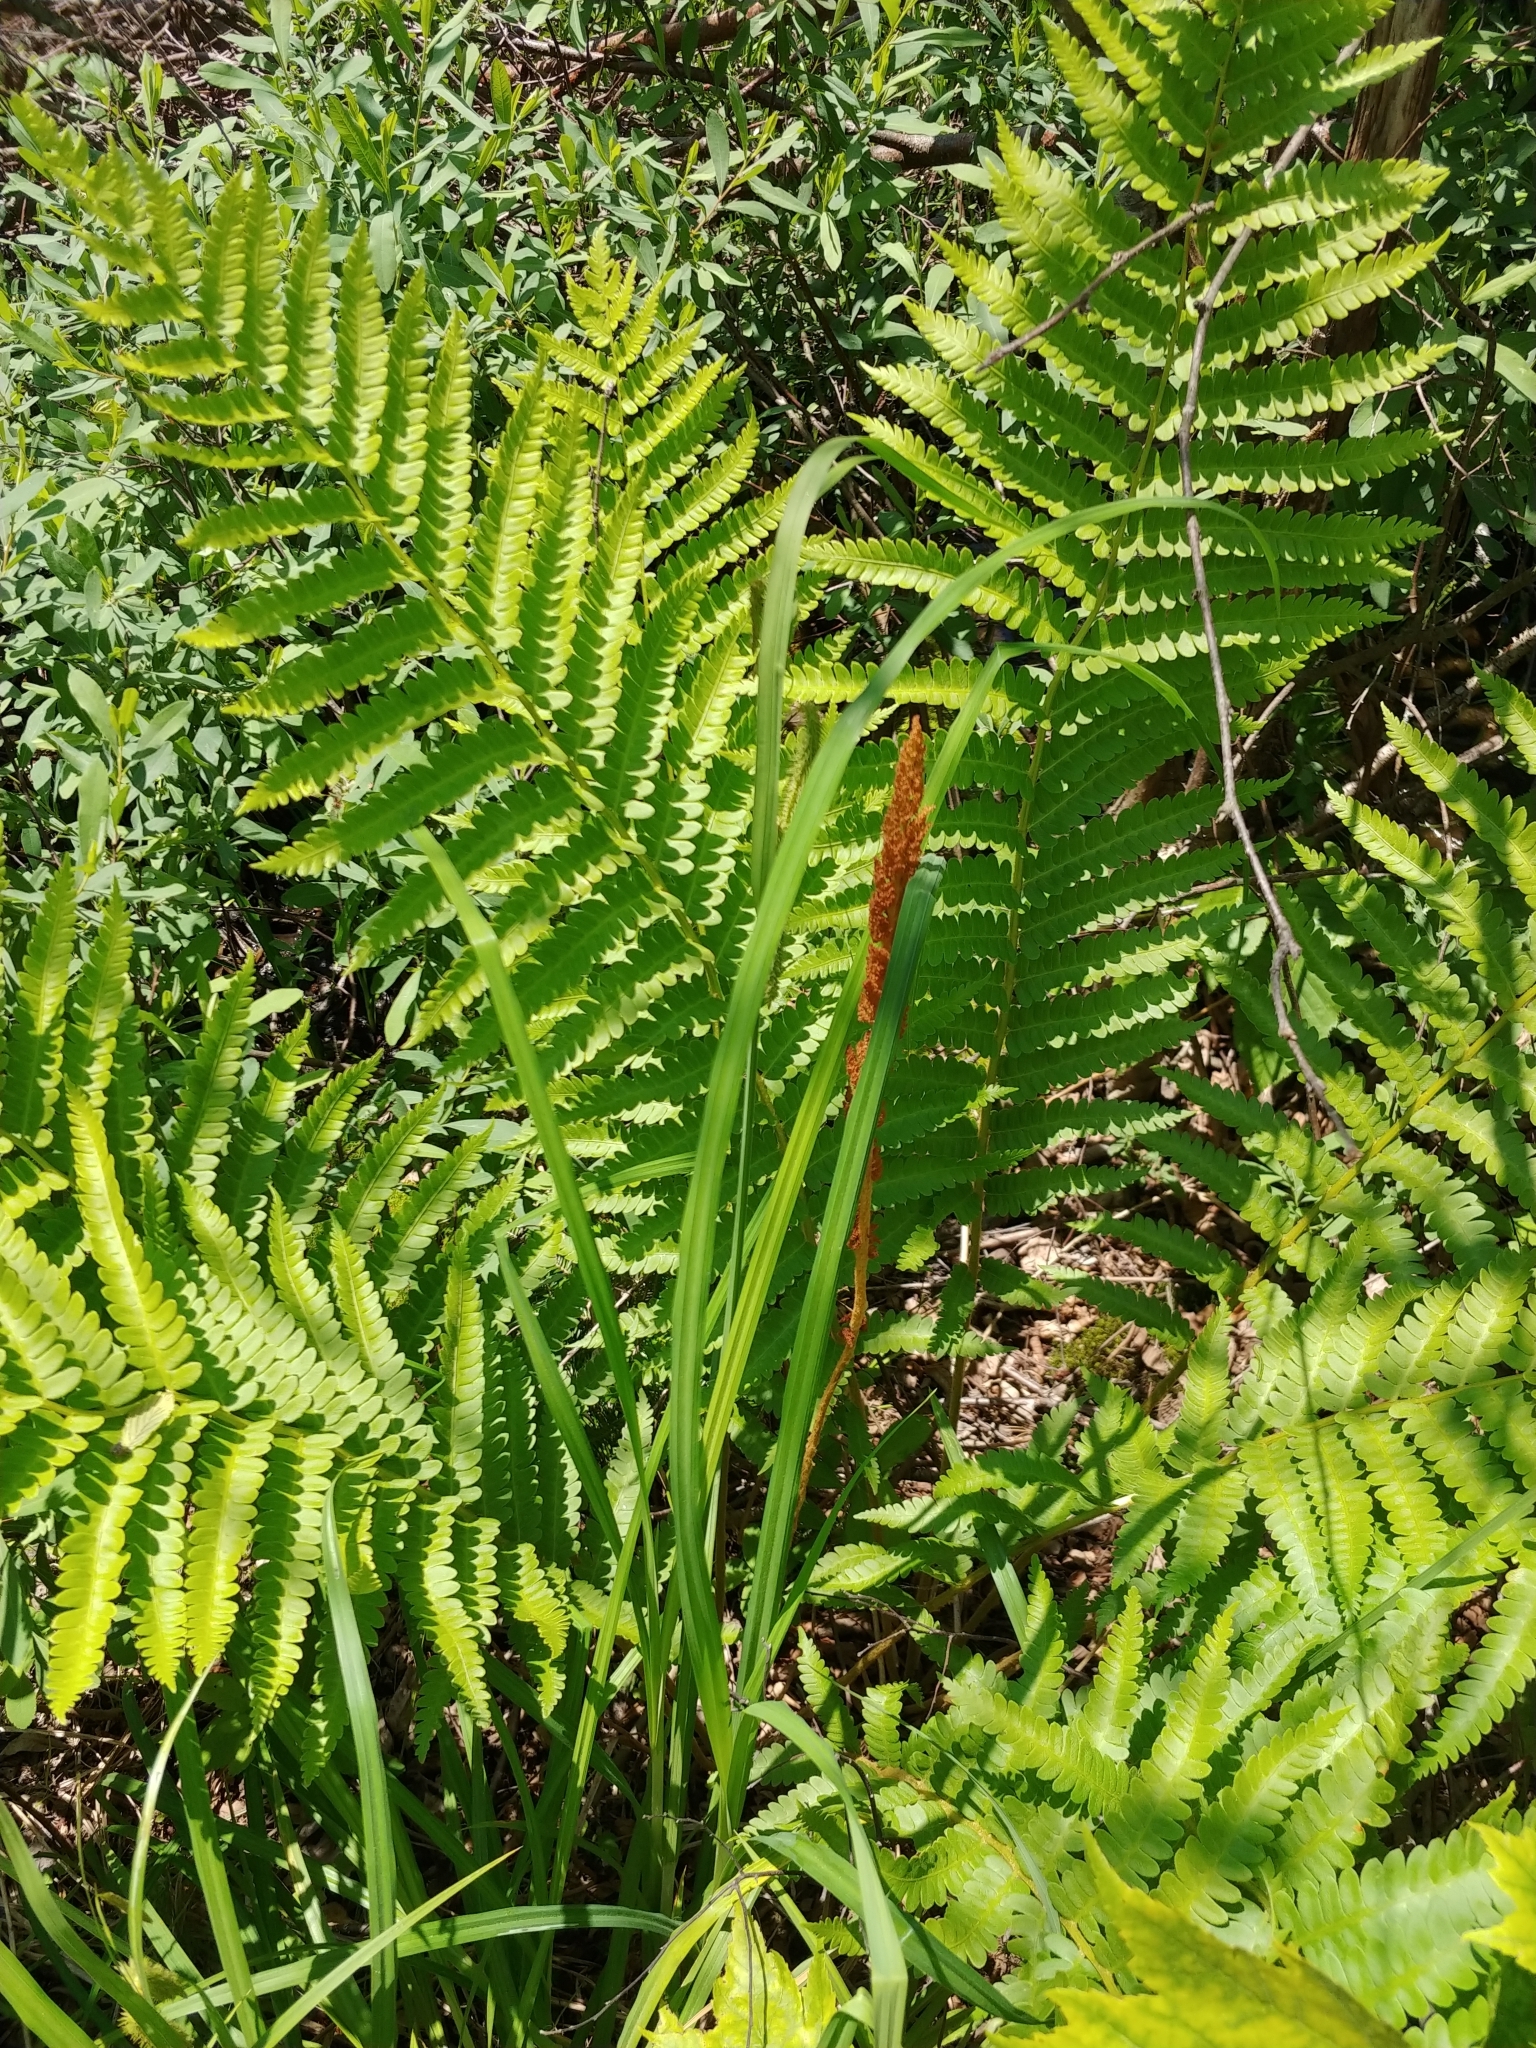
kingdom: Plantae
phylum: Tracheophyta
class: Polypodiopsida
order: Osmundales
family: Osmundaceae
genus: Osmundastrum
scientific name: Osmundastrum cinnamomeum
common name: Cinnamon fern
